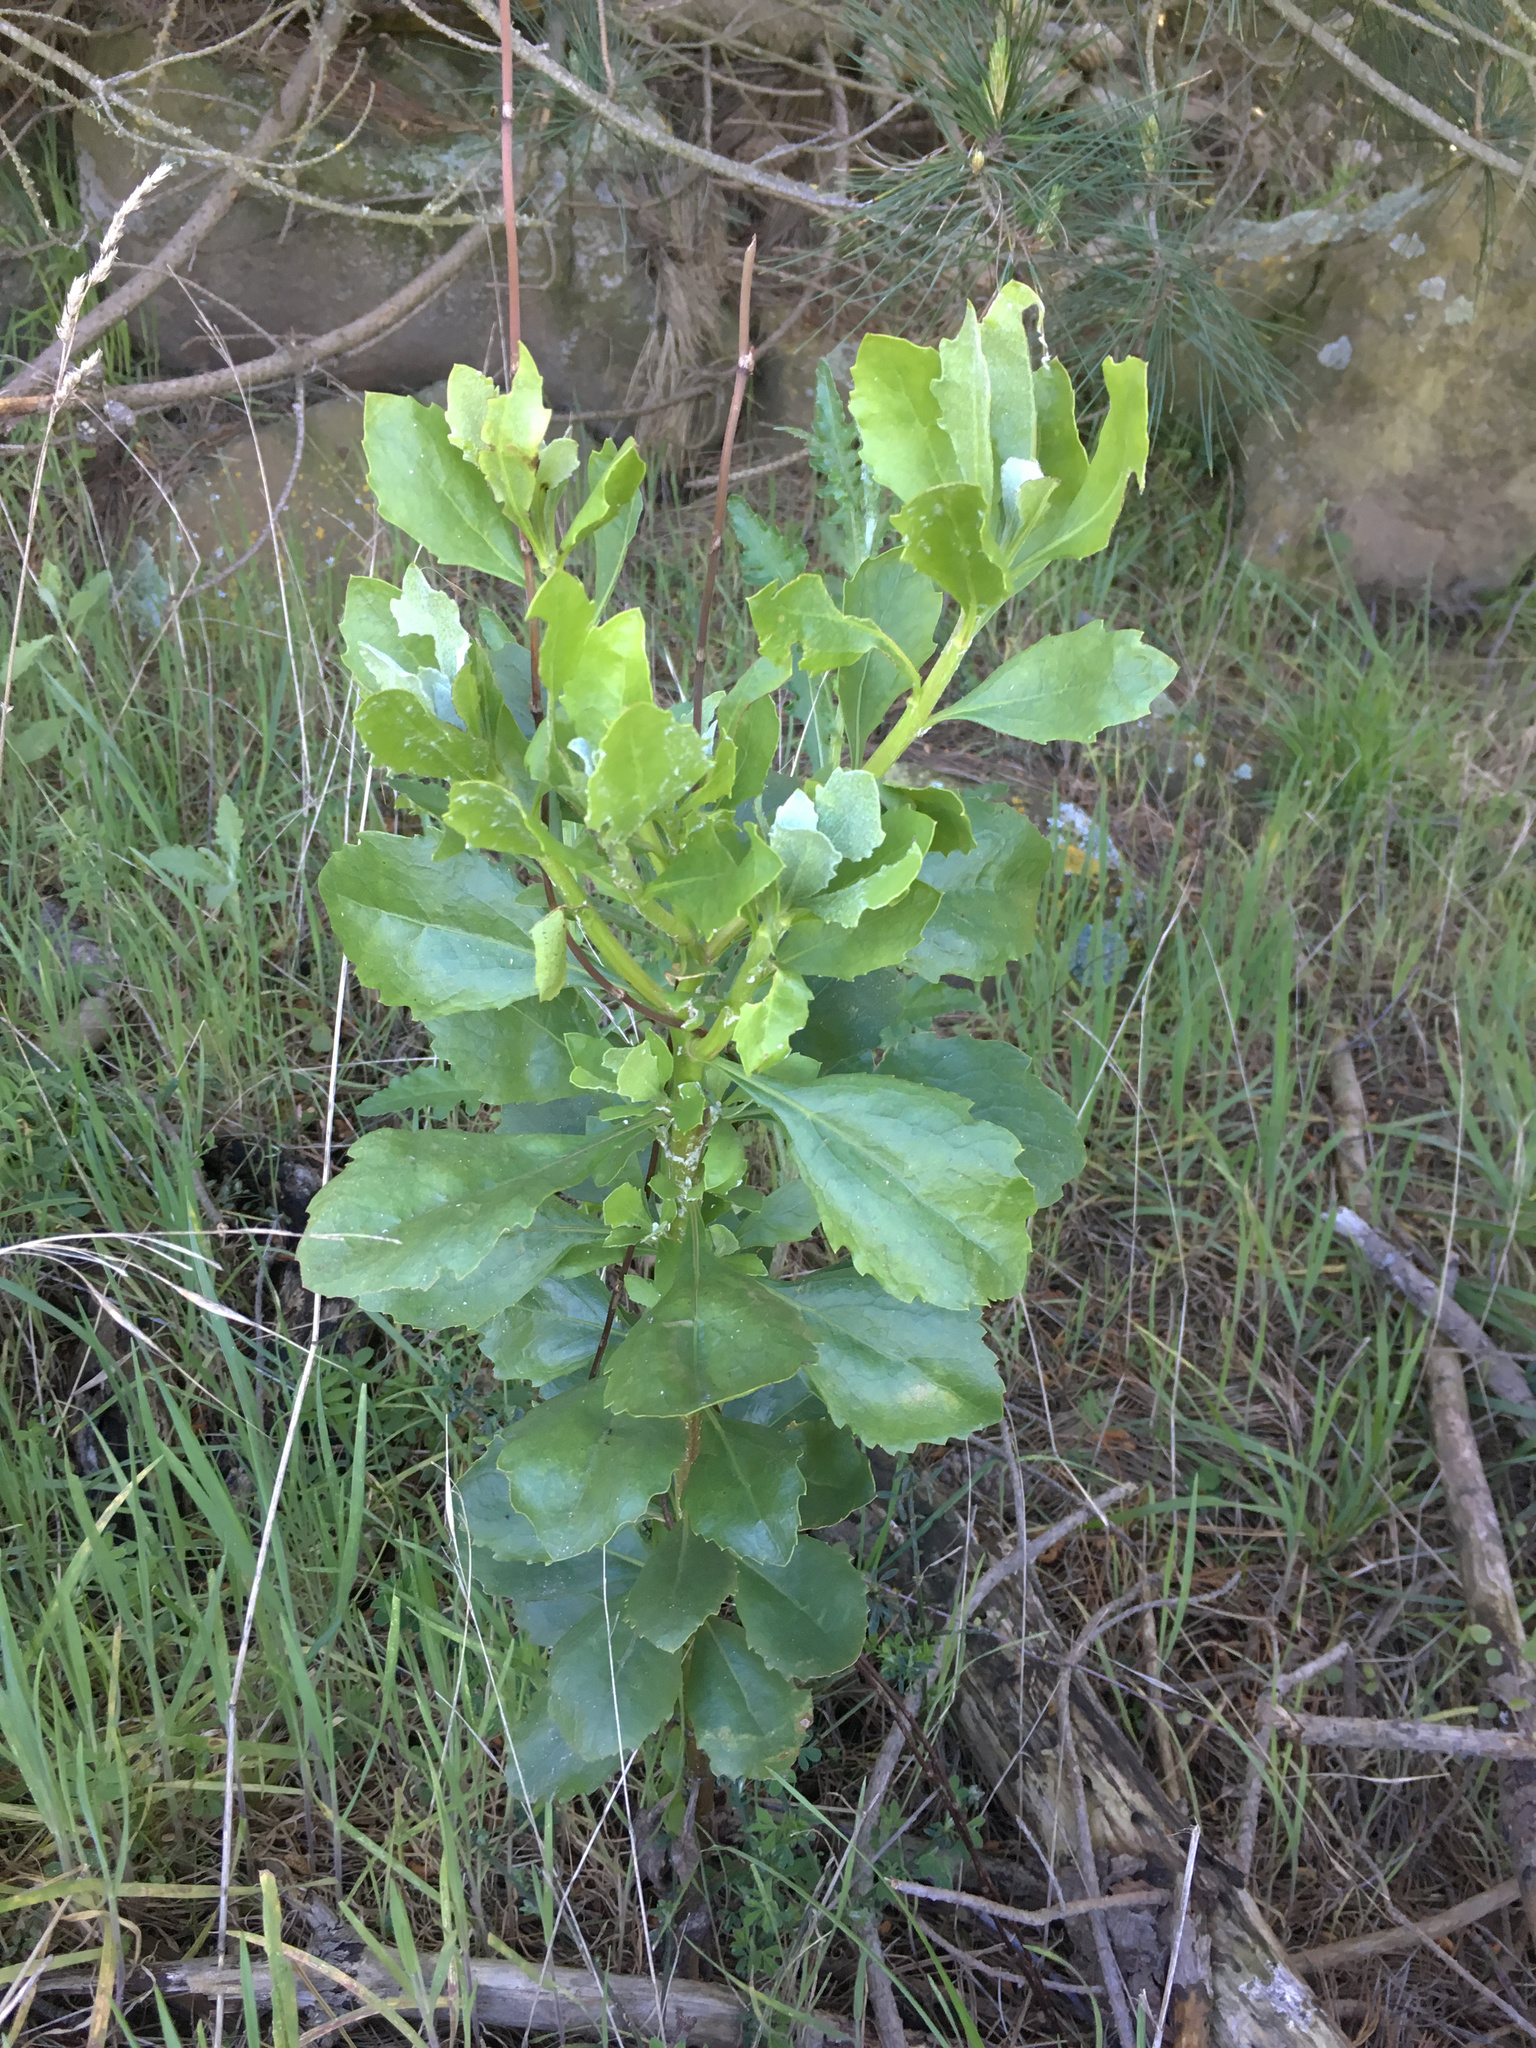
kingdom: Plantae
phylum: Tracheophyta
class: Magnoliopsida
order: Asterales
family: Asteraceae
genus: Osteospermum
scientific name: Osteospermum moniliferum
